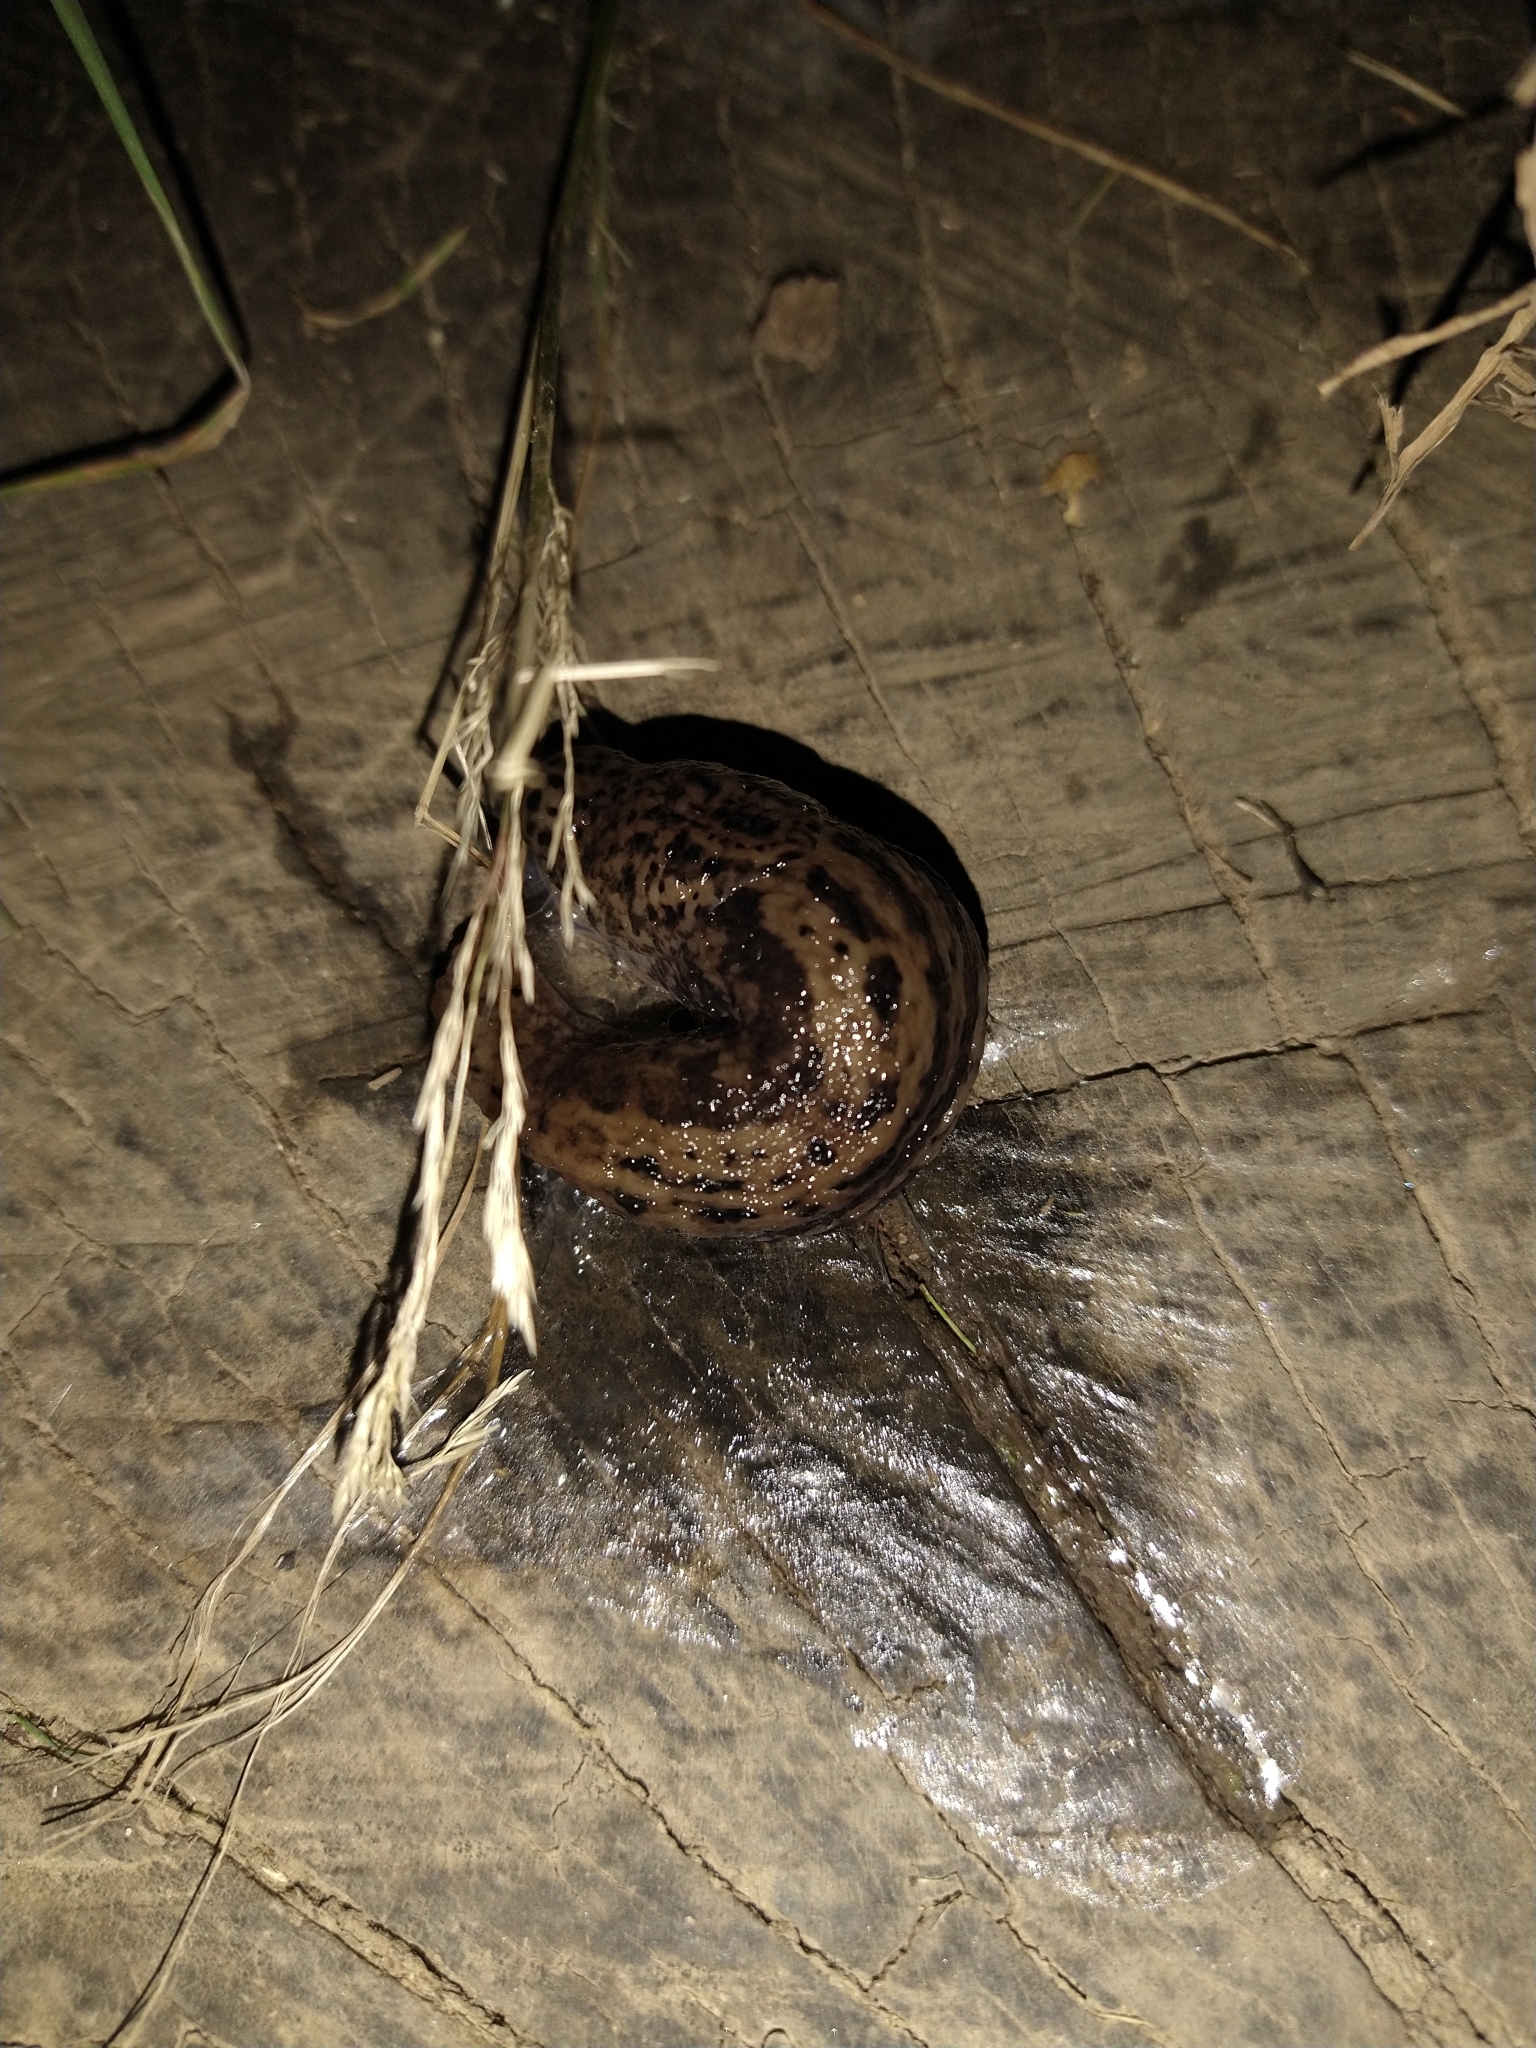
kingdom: Animalia
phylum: Mollusca
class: Gastropoda
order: Stylommatophora
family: Limacidae
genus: Limax
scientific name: Limax maximus
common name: Great grey slug
